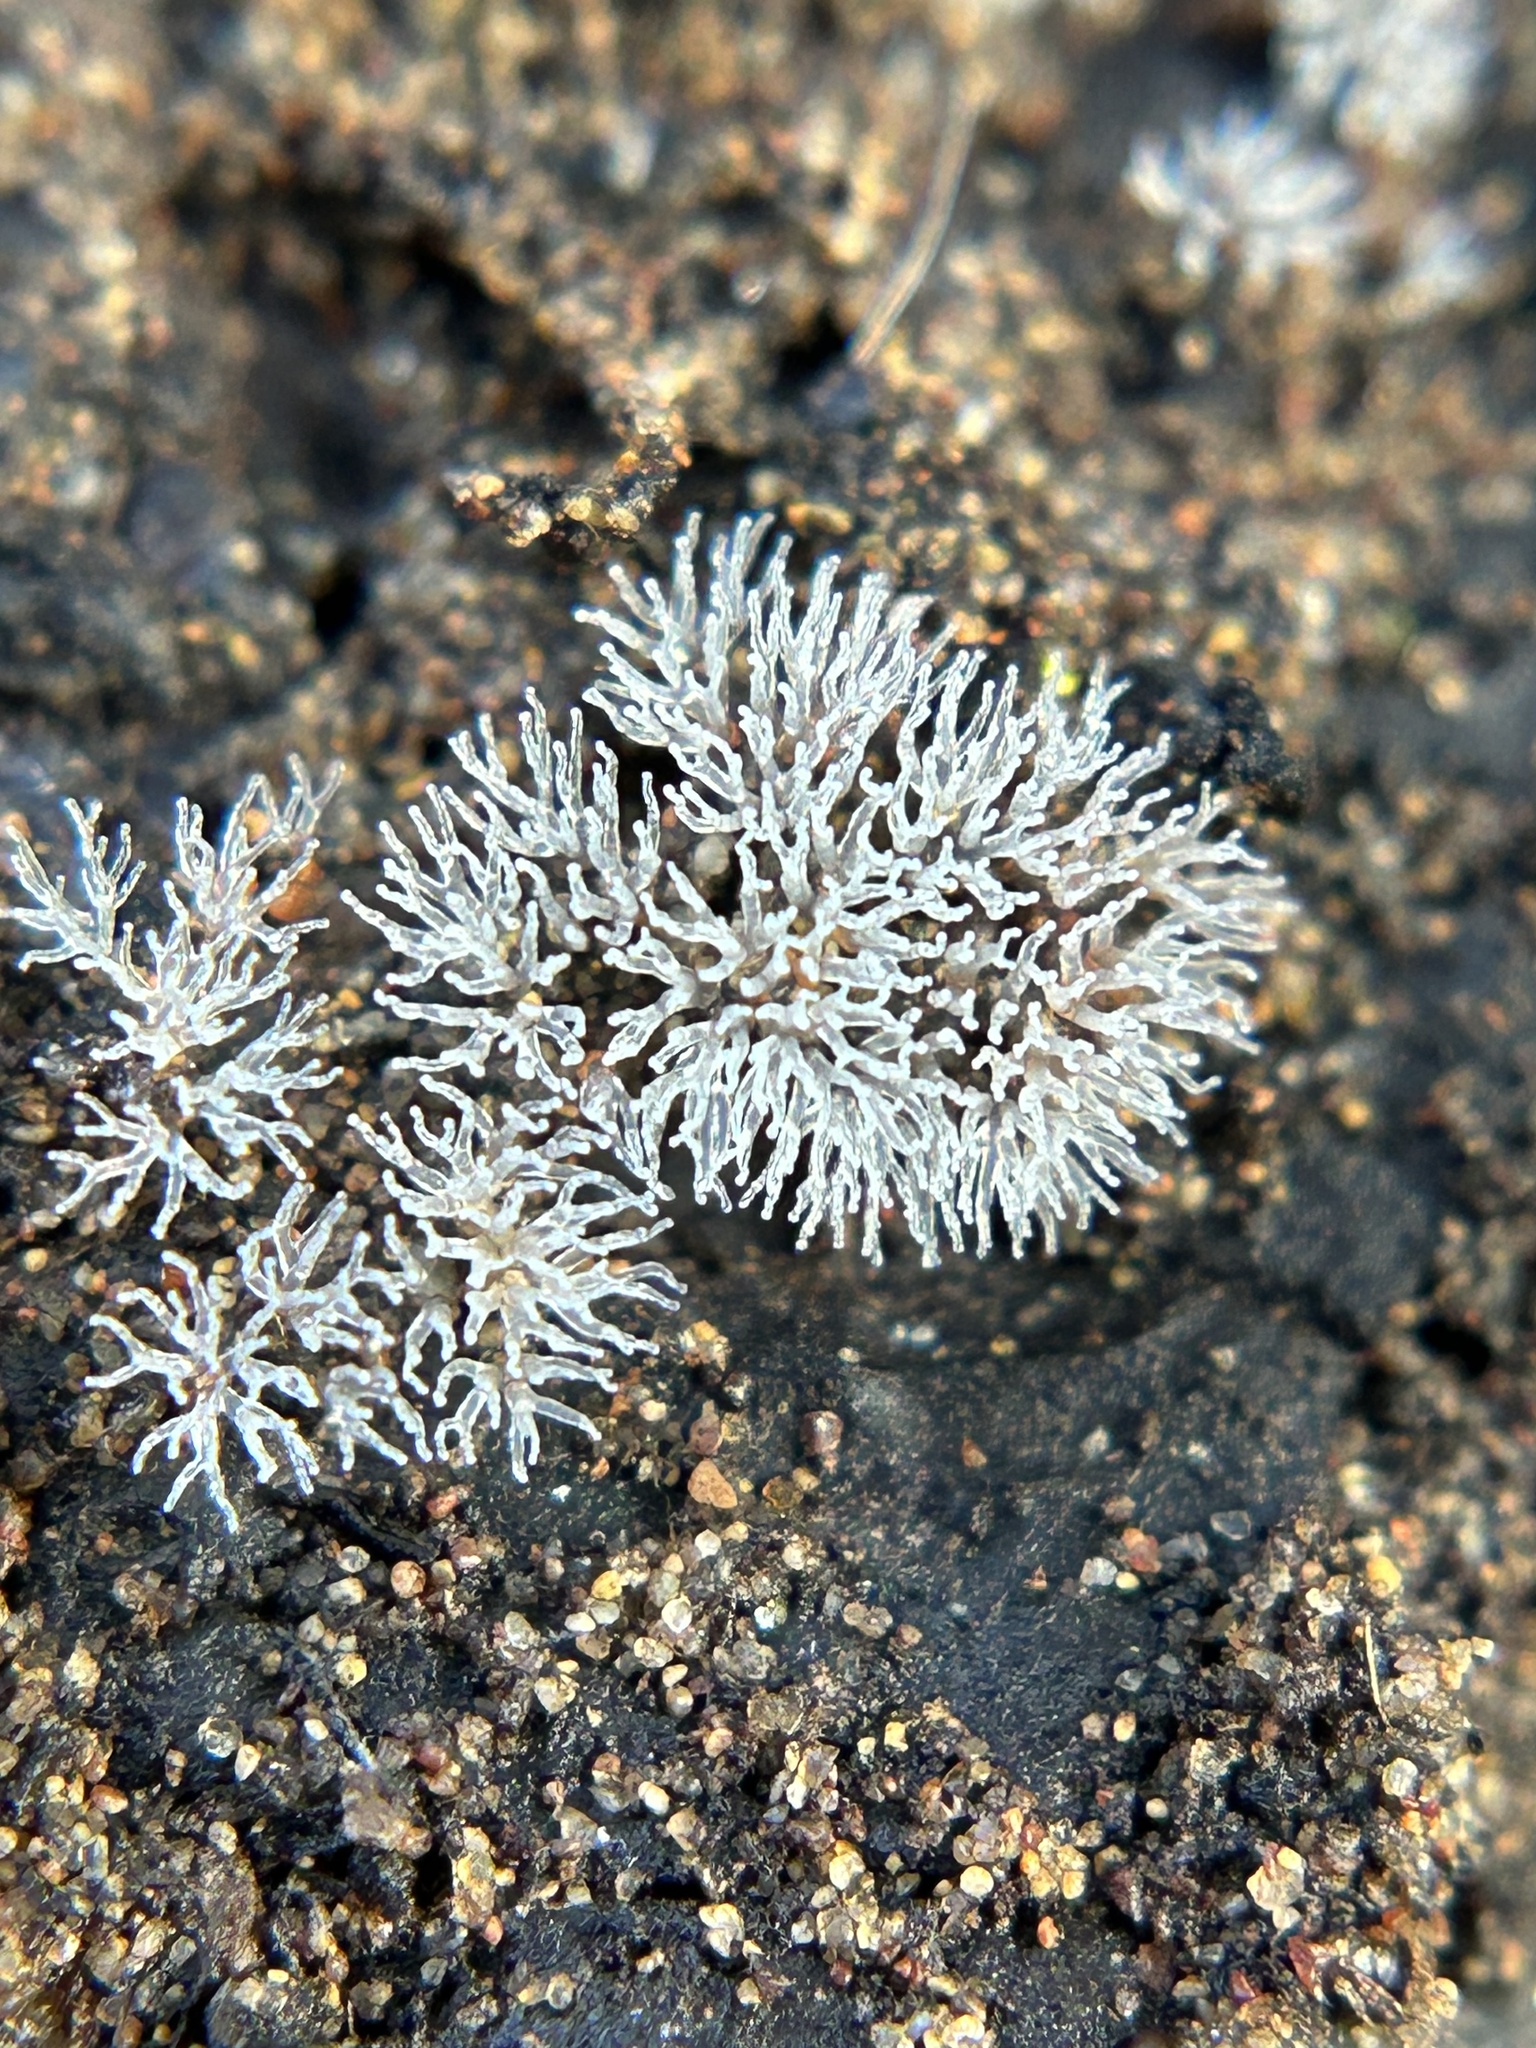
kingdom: Protozoa
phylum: Mycetozoa
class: Protosteliomycetes
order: Ceratiomyxales
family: Ceratiomyxaceae
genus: Ceratiomyxa
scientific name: Ceratiomyxa fruticulosa
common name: Honeycomb coral slime mold
